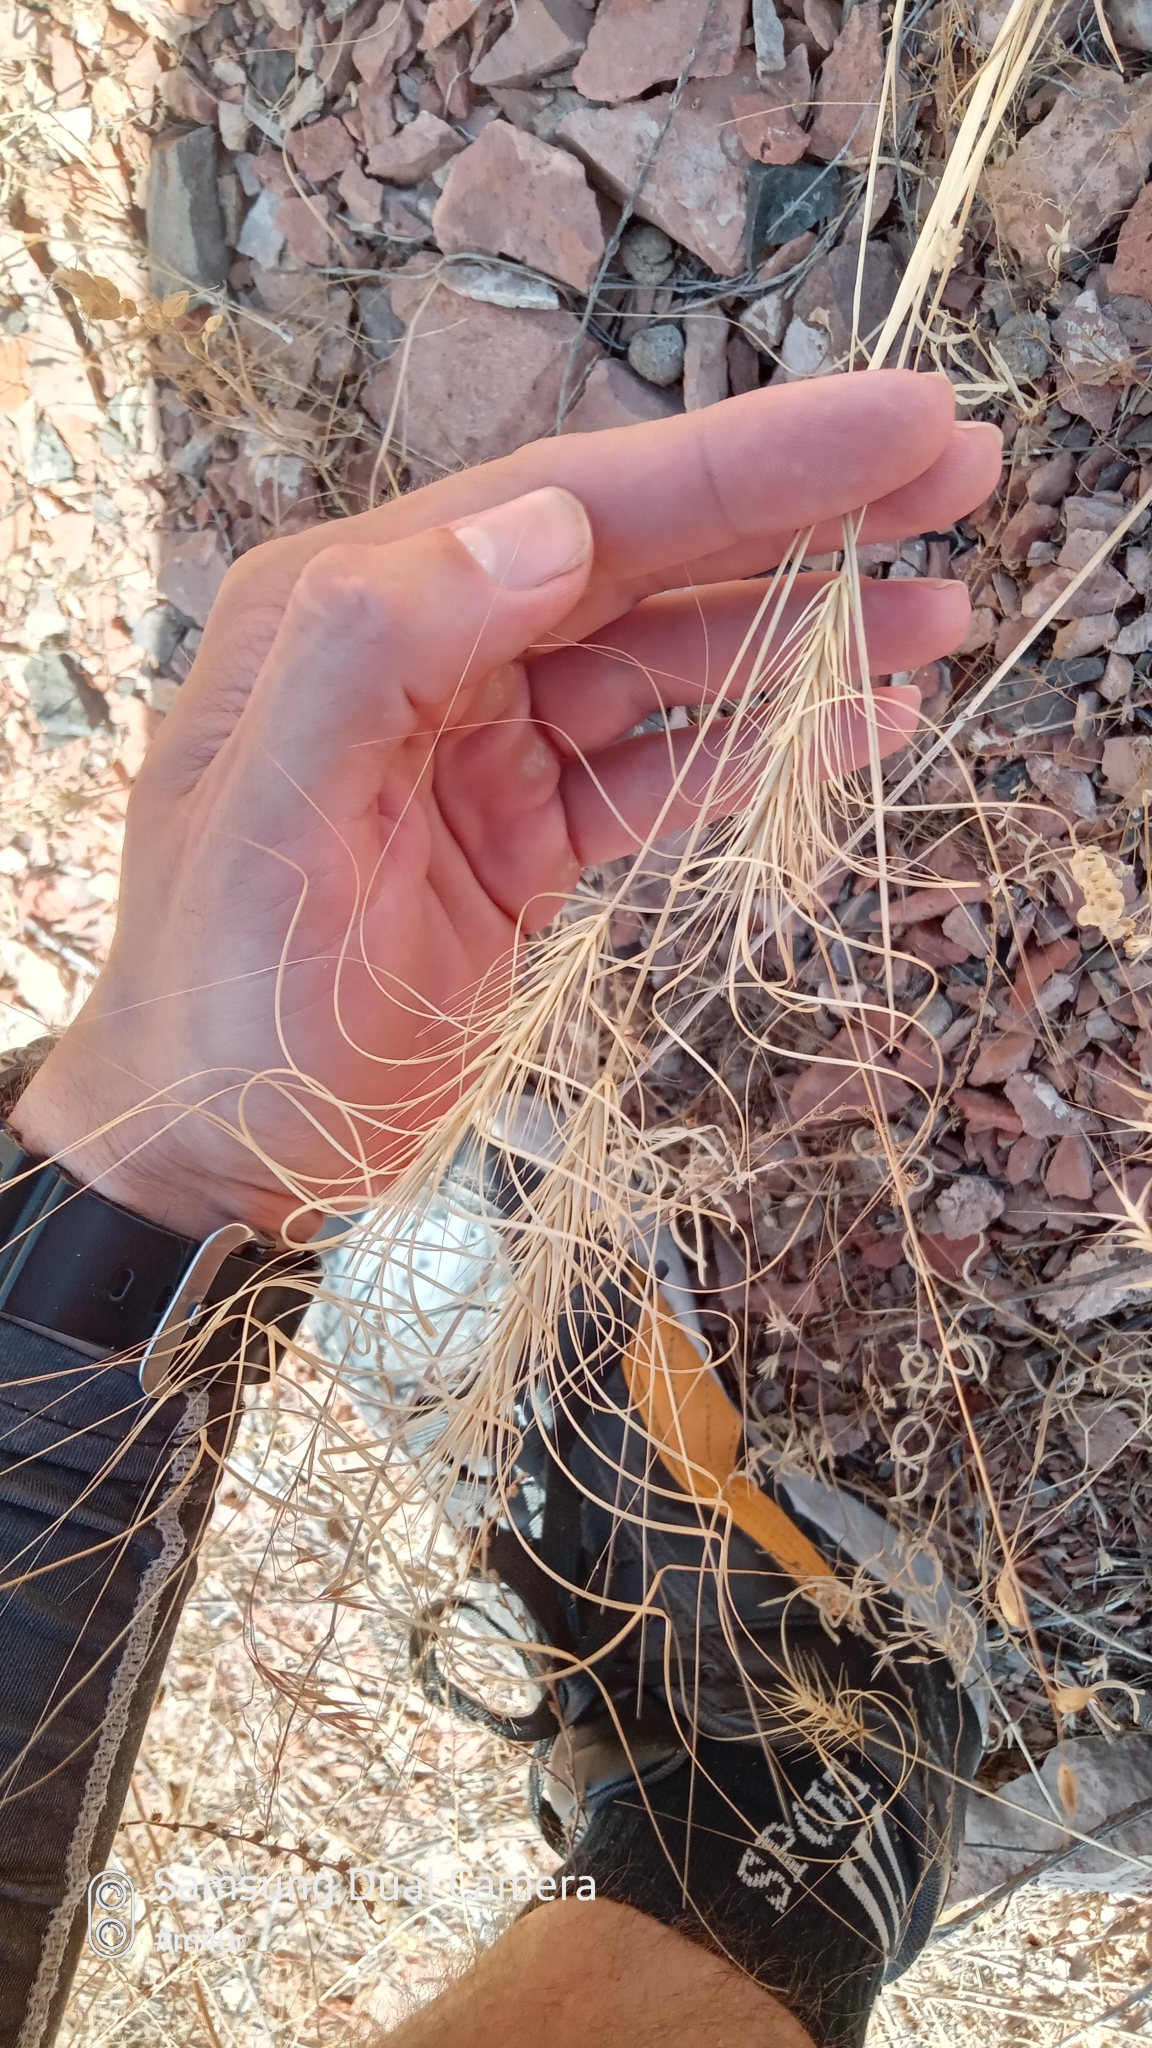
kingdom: Plantae
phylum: Tracheophyta
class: Liliopsida
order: Poales
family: Poaceae
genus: Taeniatherum
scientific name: Taeniatherum caput-medusae
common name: Medusahead
